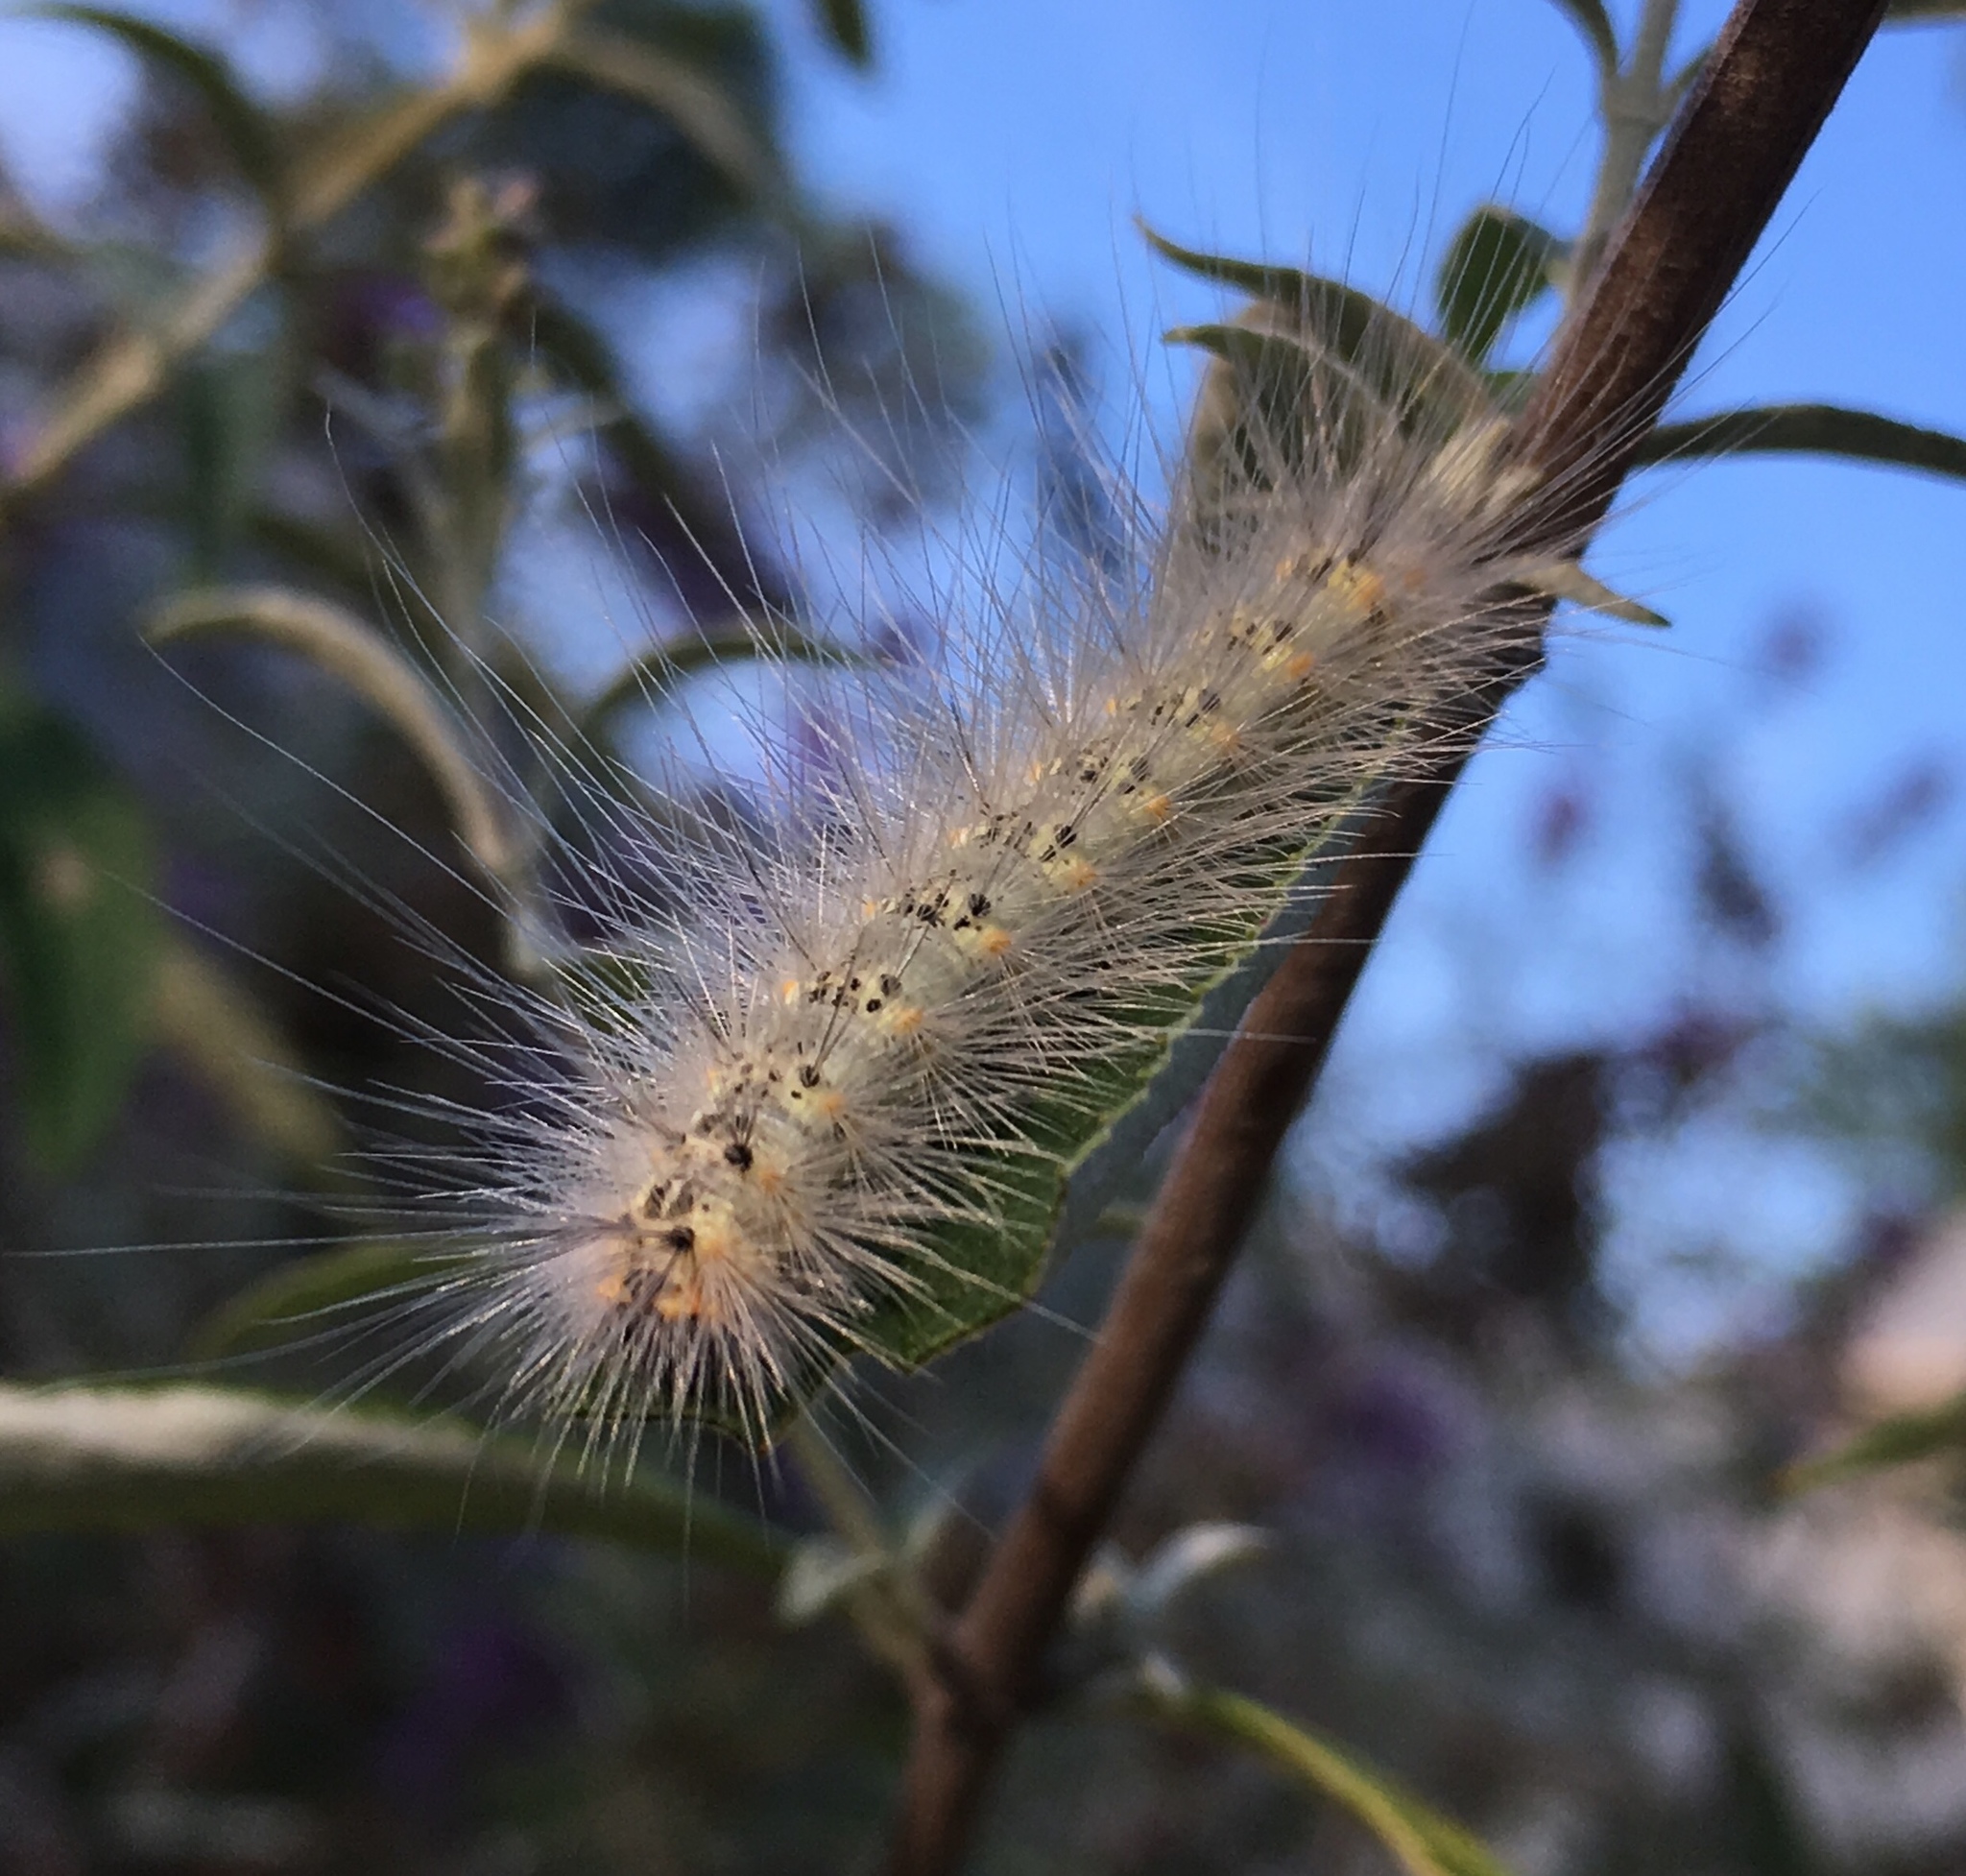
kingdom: Animalia
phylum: Arthropoda
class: Insecta
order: Lepidoptera
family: Erebidae
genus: Hyphantria
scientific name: Hyphantria cunea
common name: American white moth
